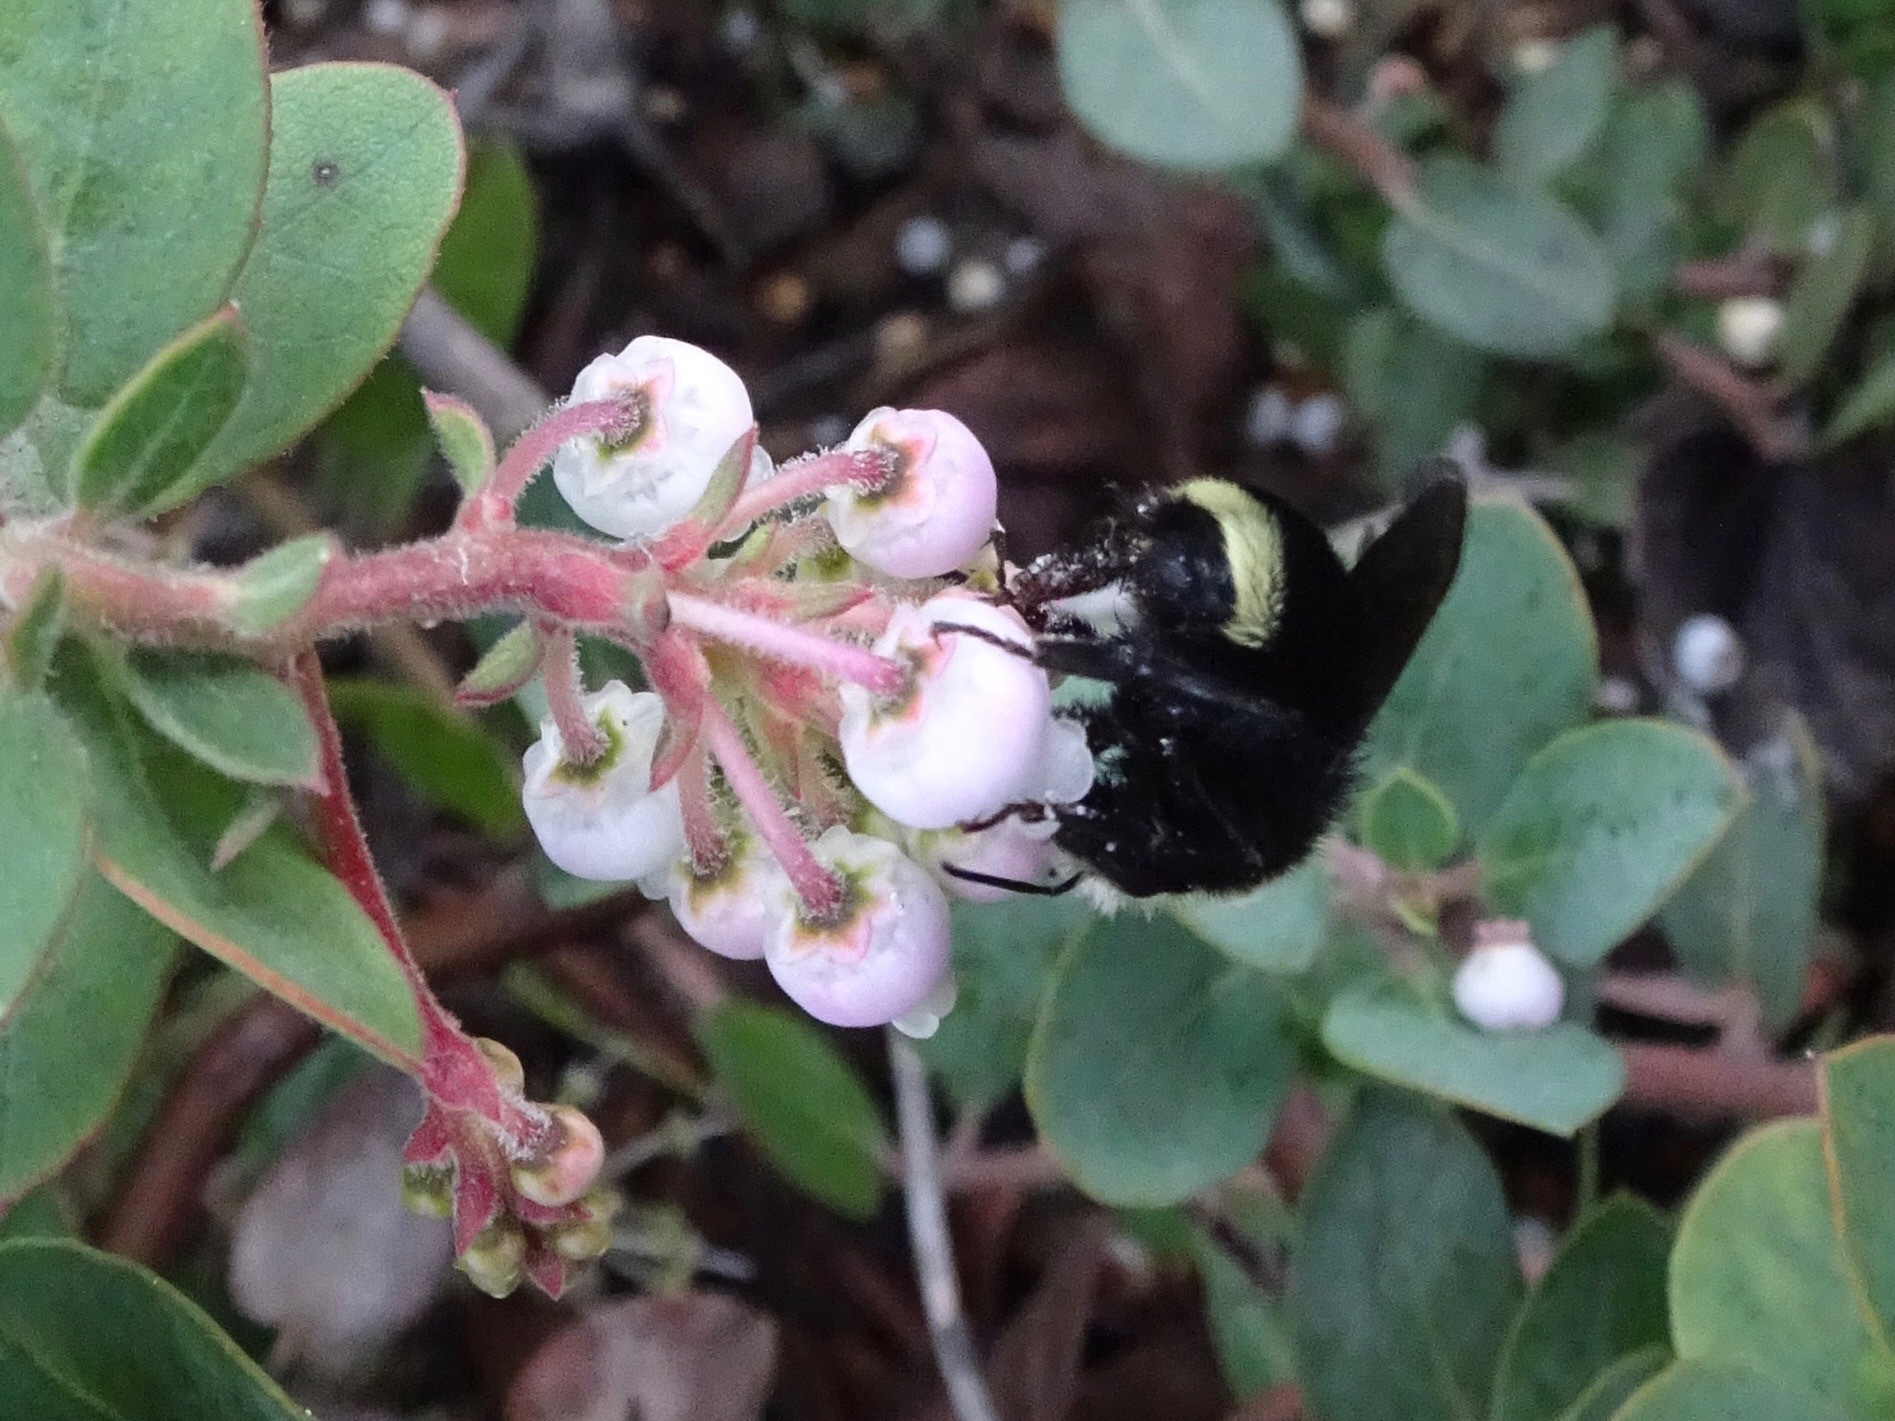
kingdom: Animalia
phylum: Arthropoda
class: Insecta
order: Hymenoptera
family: Apidae
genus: Bombus
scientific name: Bombus vosnesenskii
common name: Vosnesensky bumble bee
